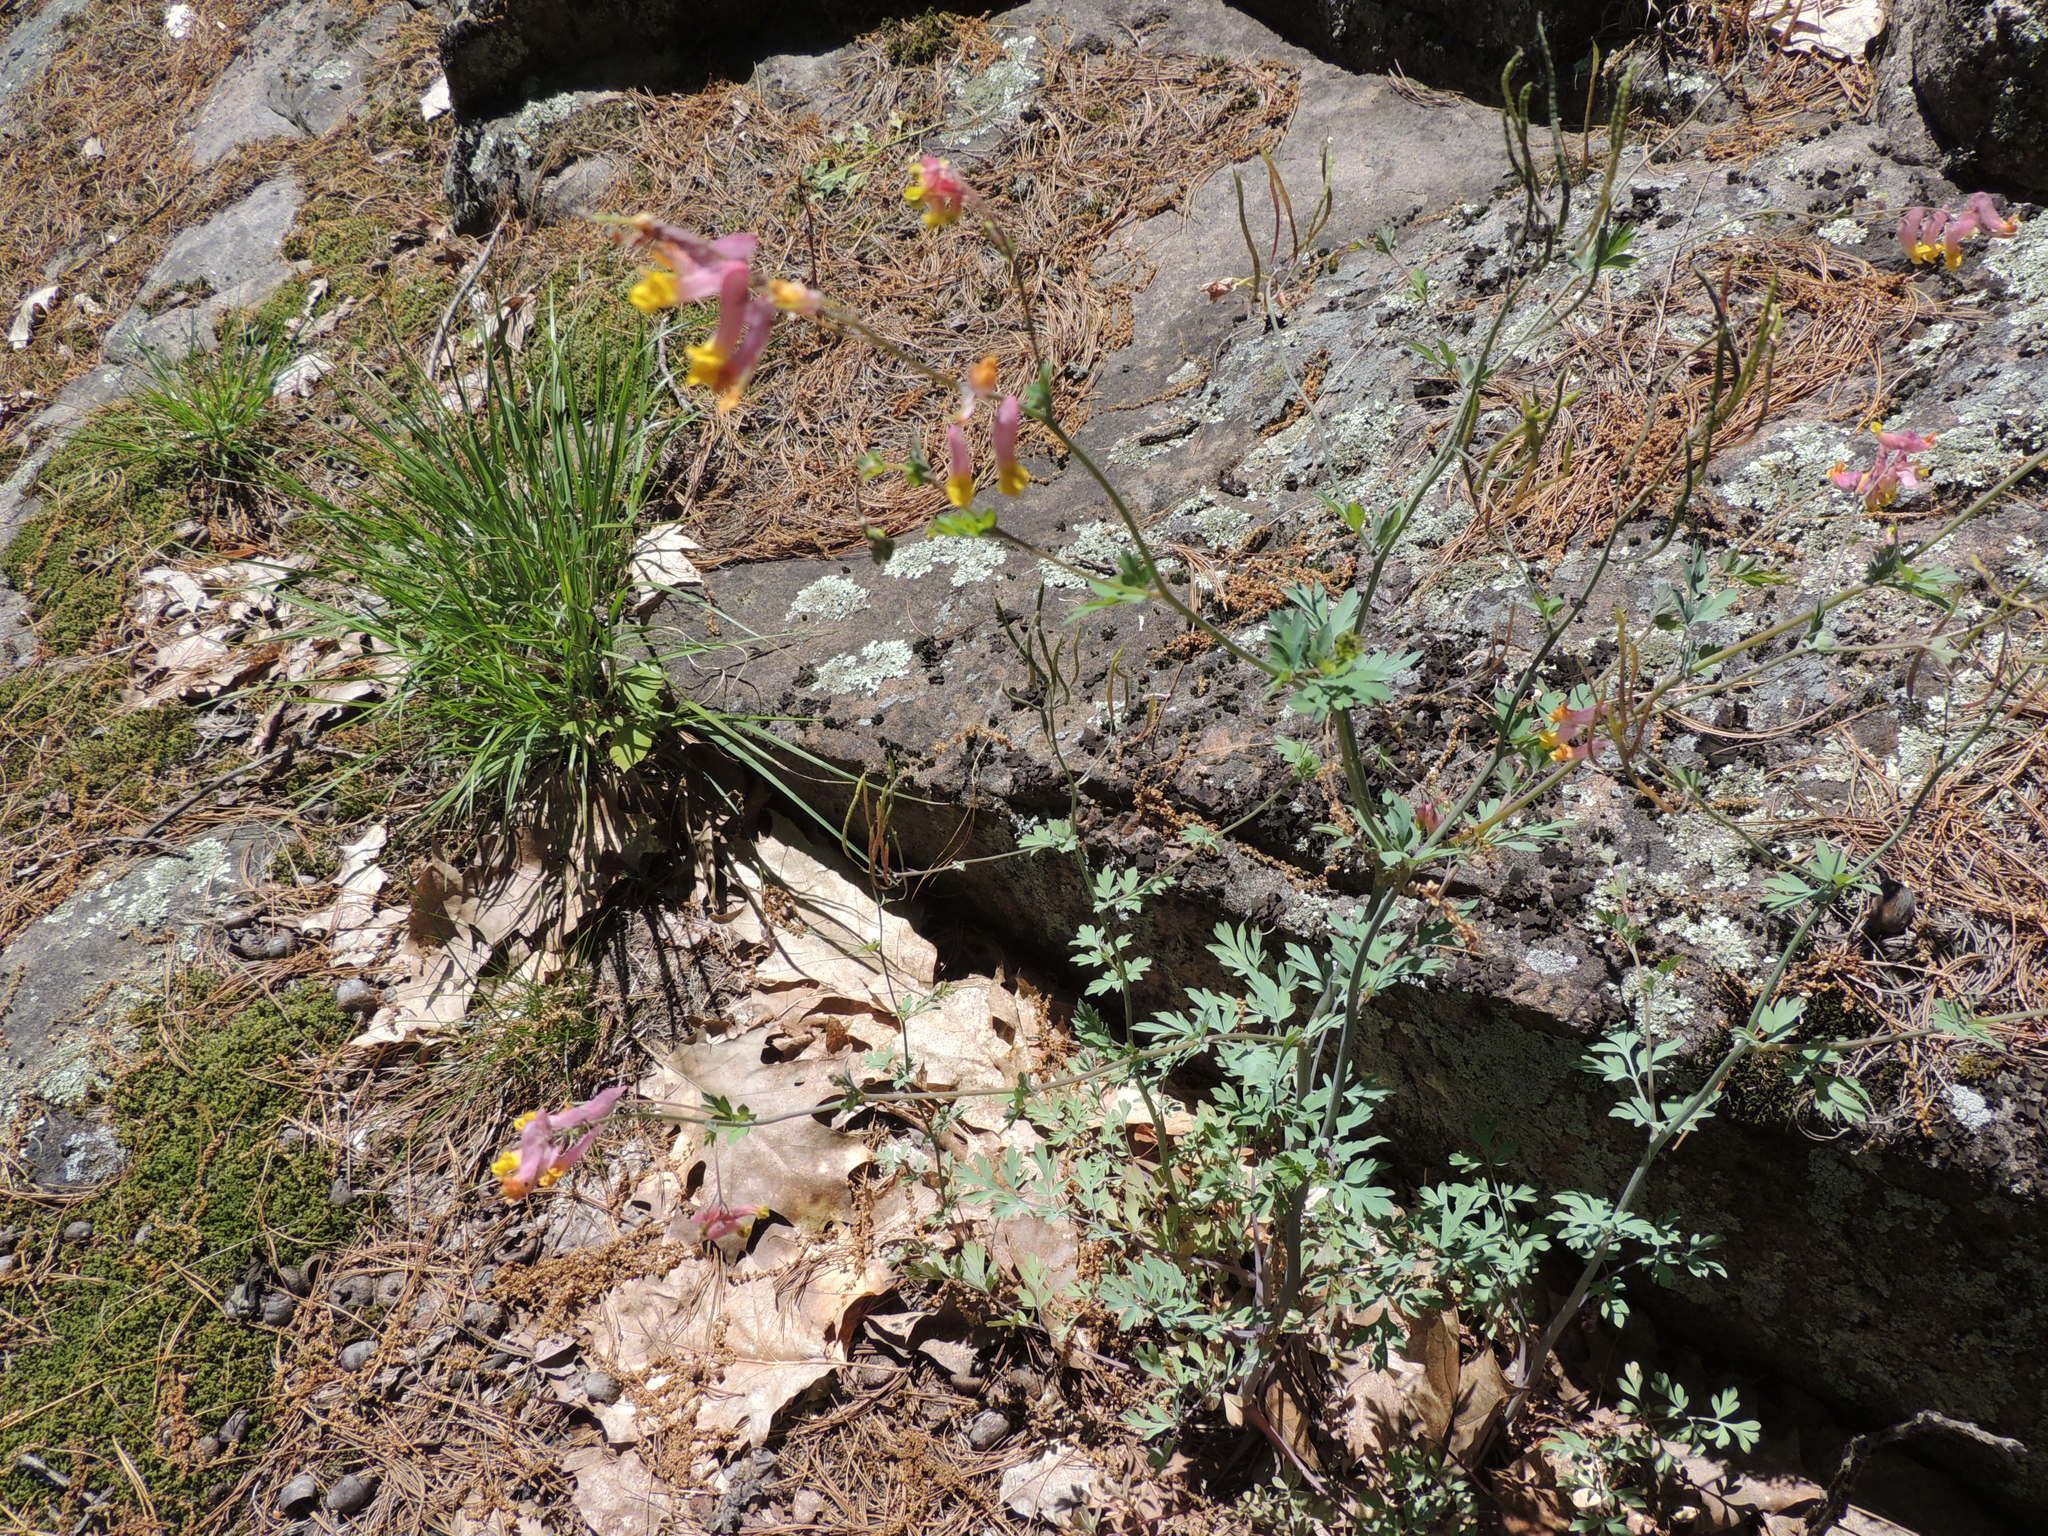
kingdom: Plantae
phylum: Tracheophyta
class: Magnoliopsida
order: Ranunculales
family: Papaveraceae
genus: Capnoides
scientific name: Capnoides sempervirens
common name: Rock harlequin
